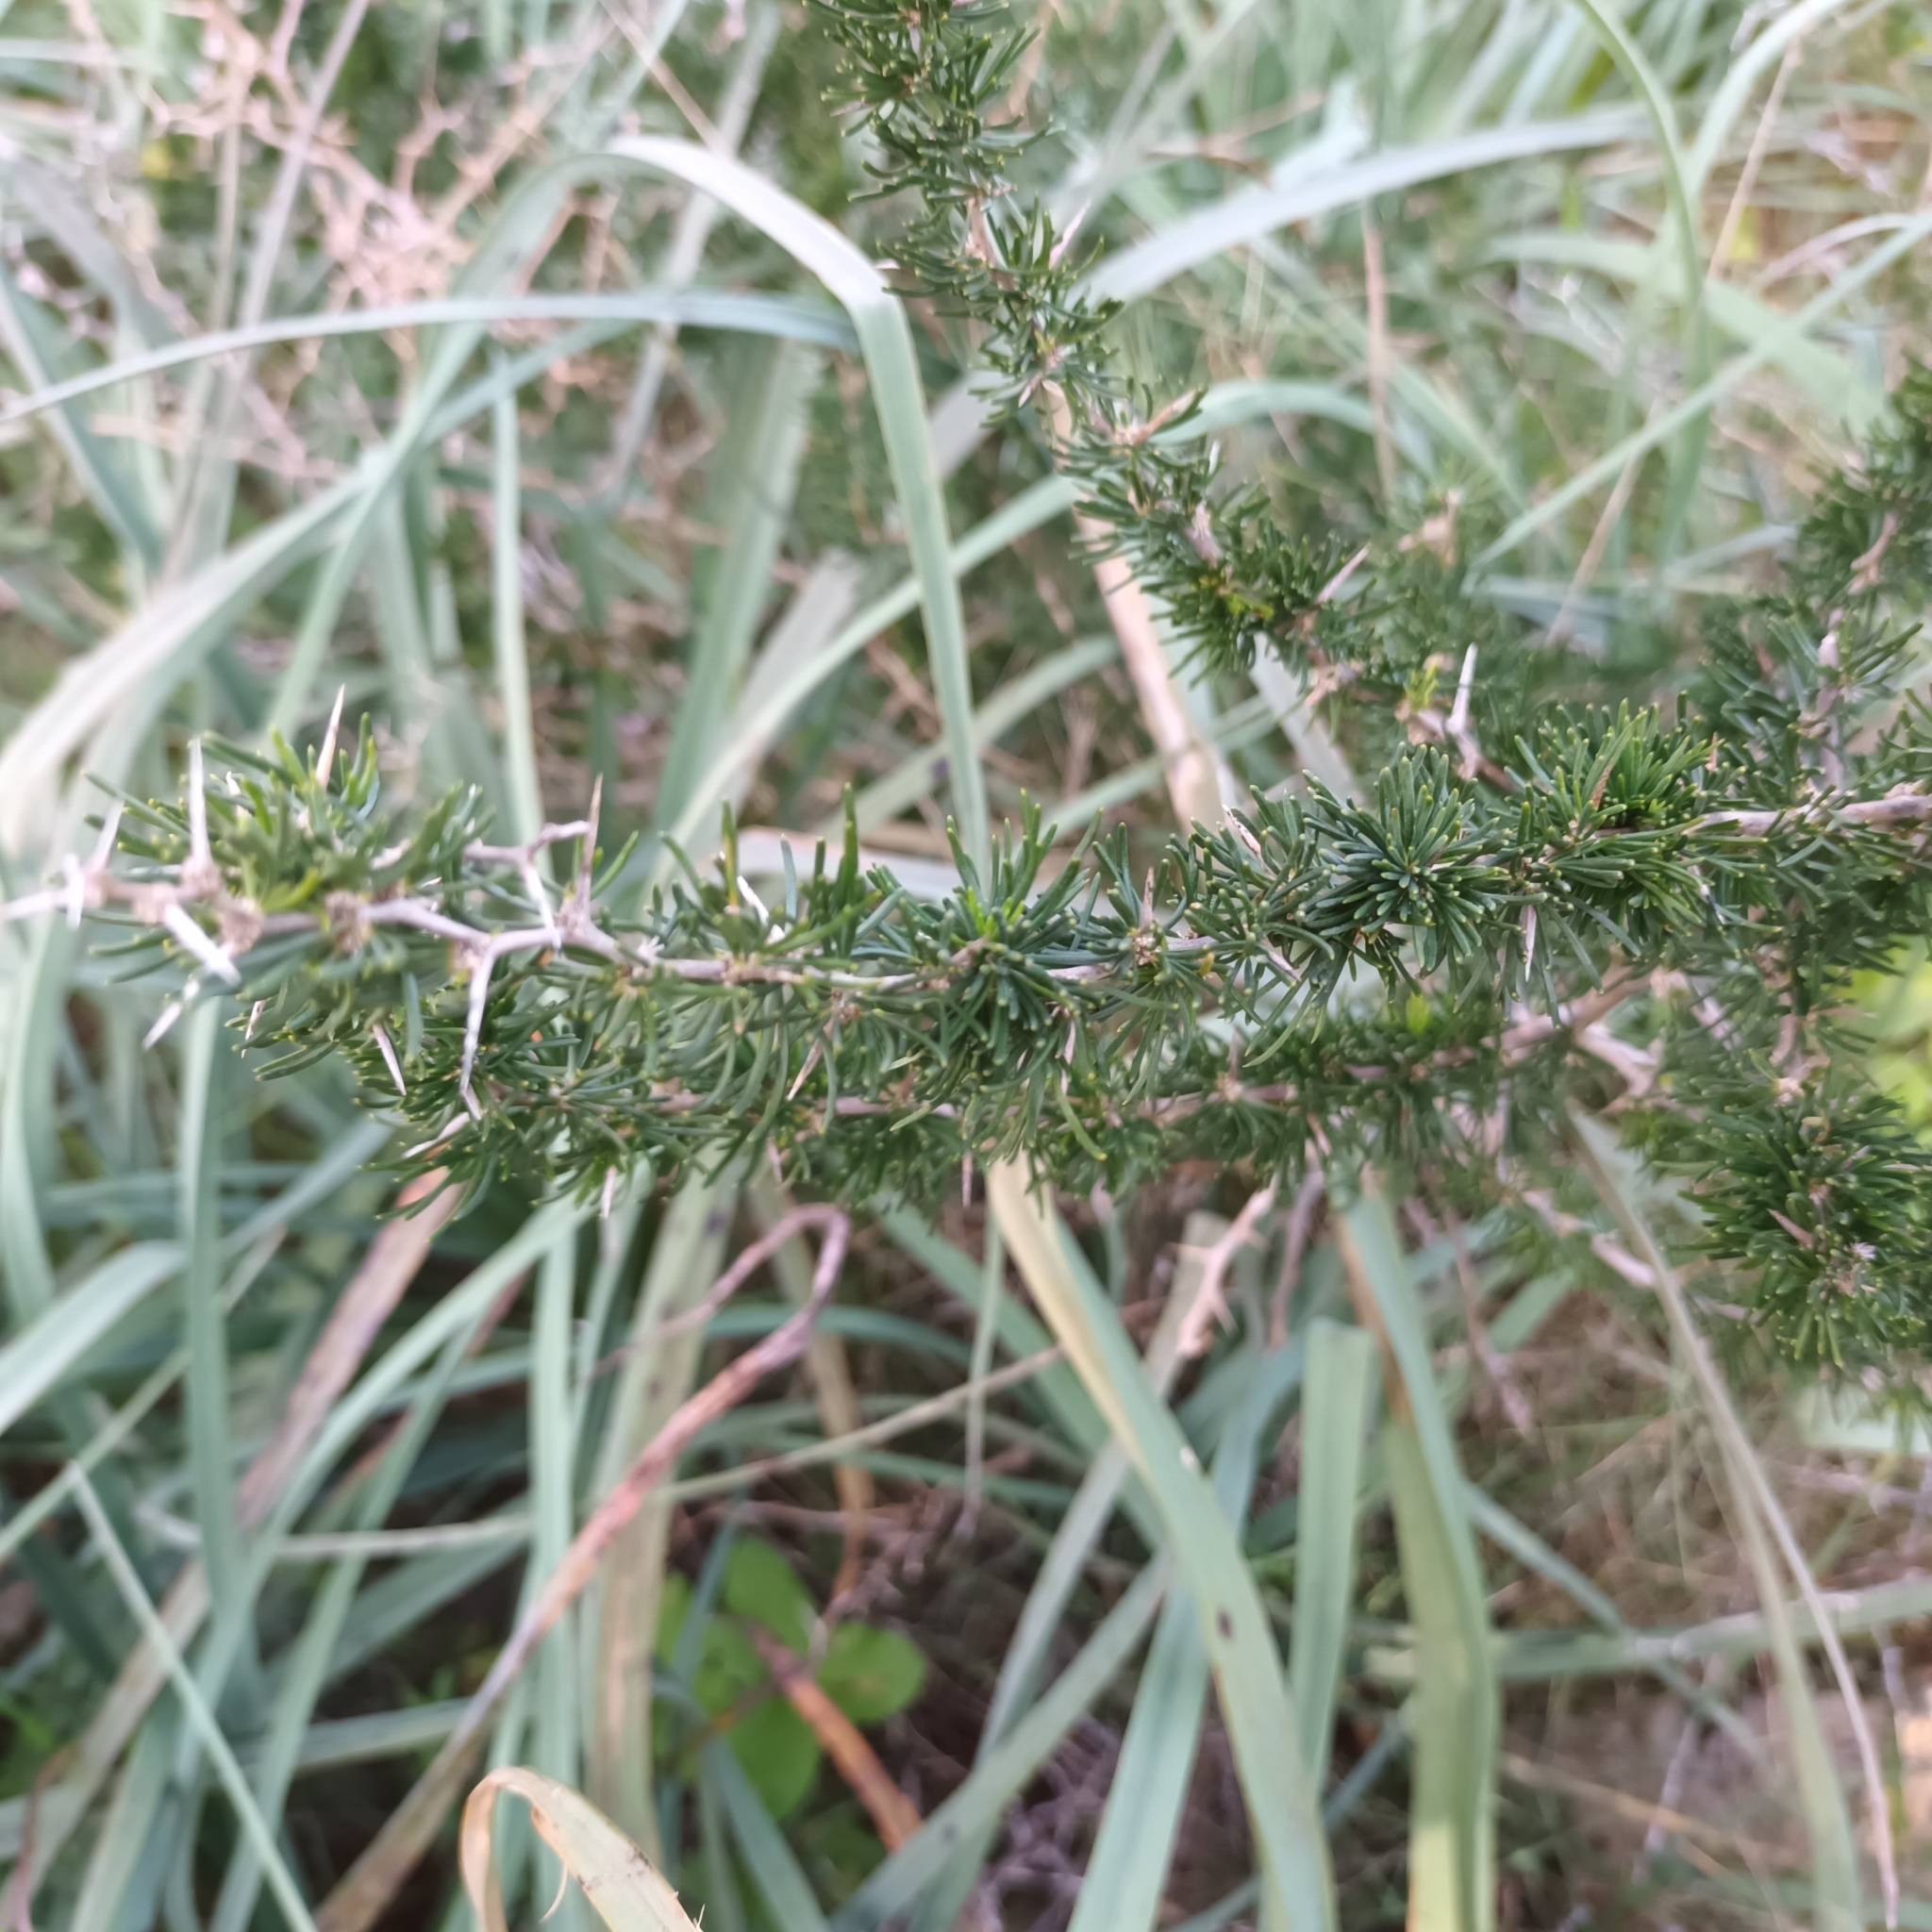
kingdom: Plantae
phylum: Tracheophyta
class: Liliopsida
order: Asparagales
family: Asparagaceae
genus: Asparagus
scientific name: Asparagus acutifolius
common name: Wild asparagus
